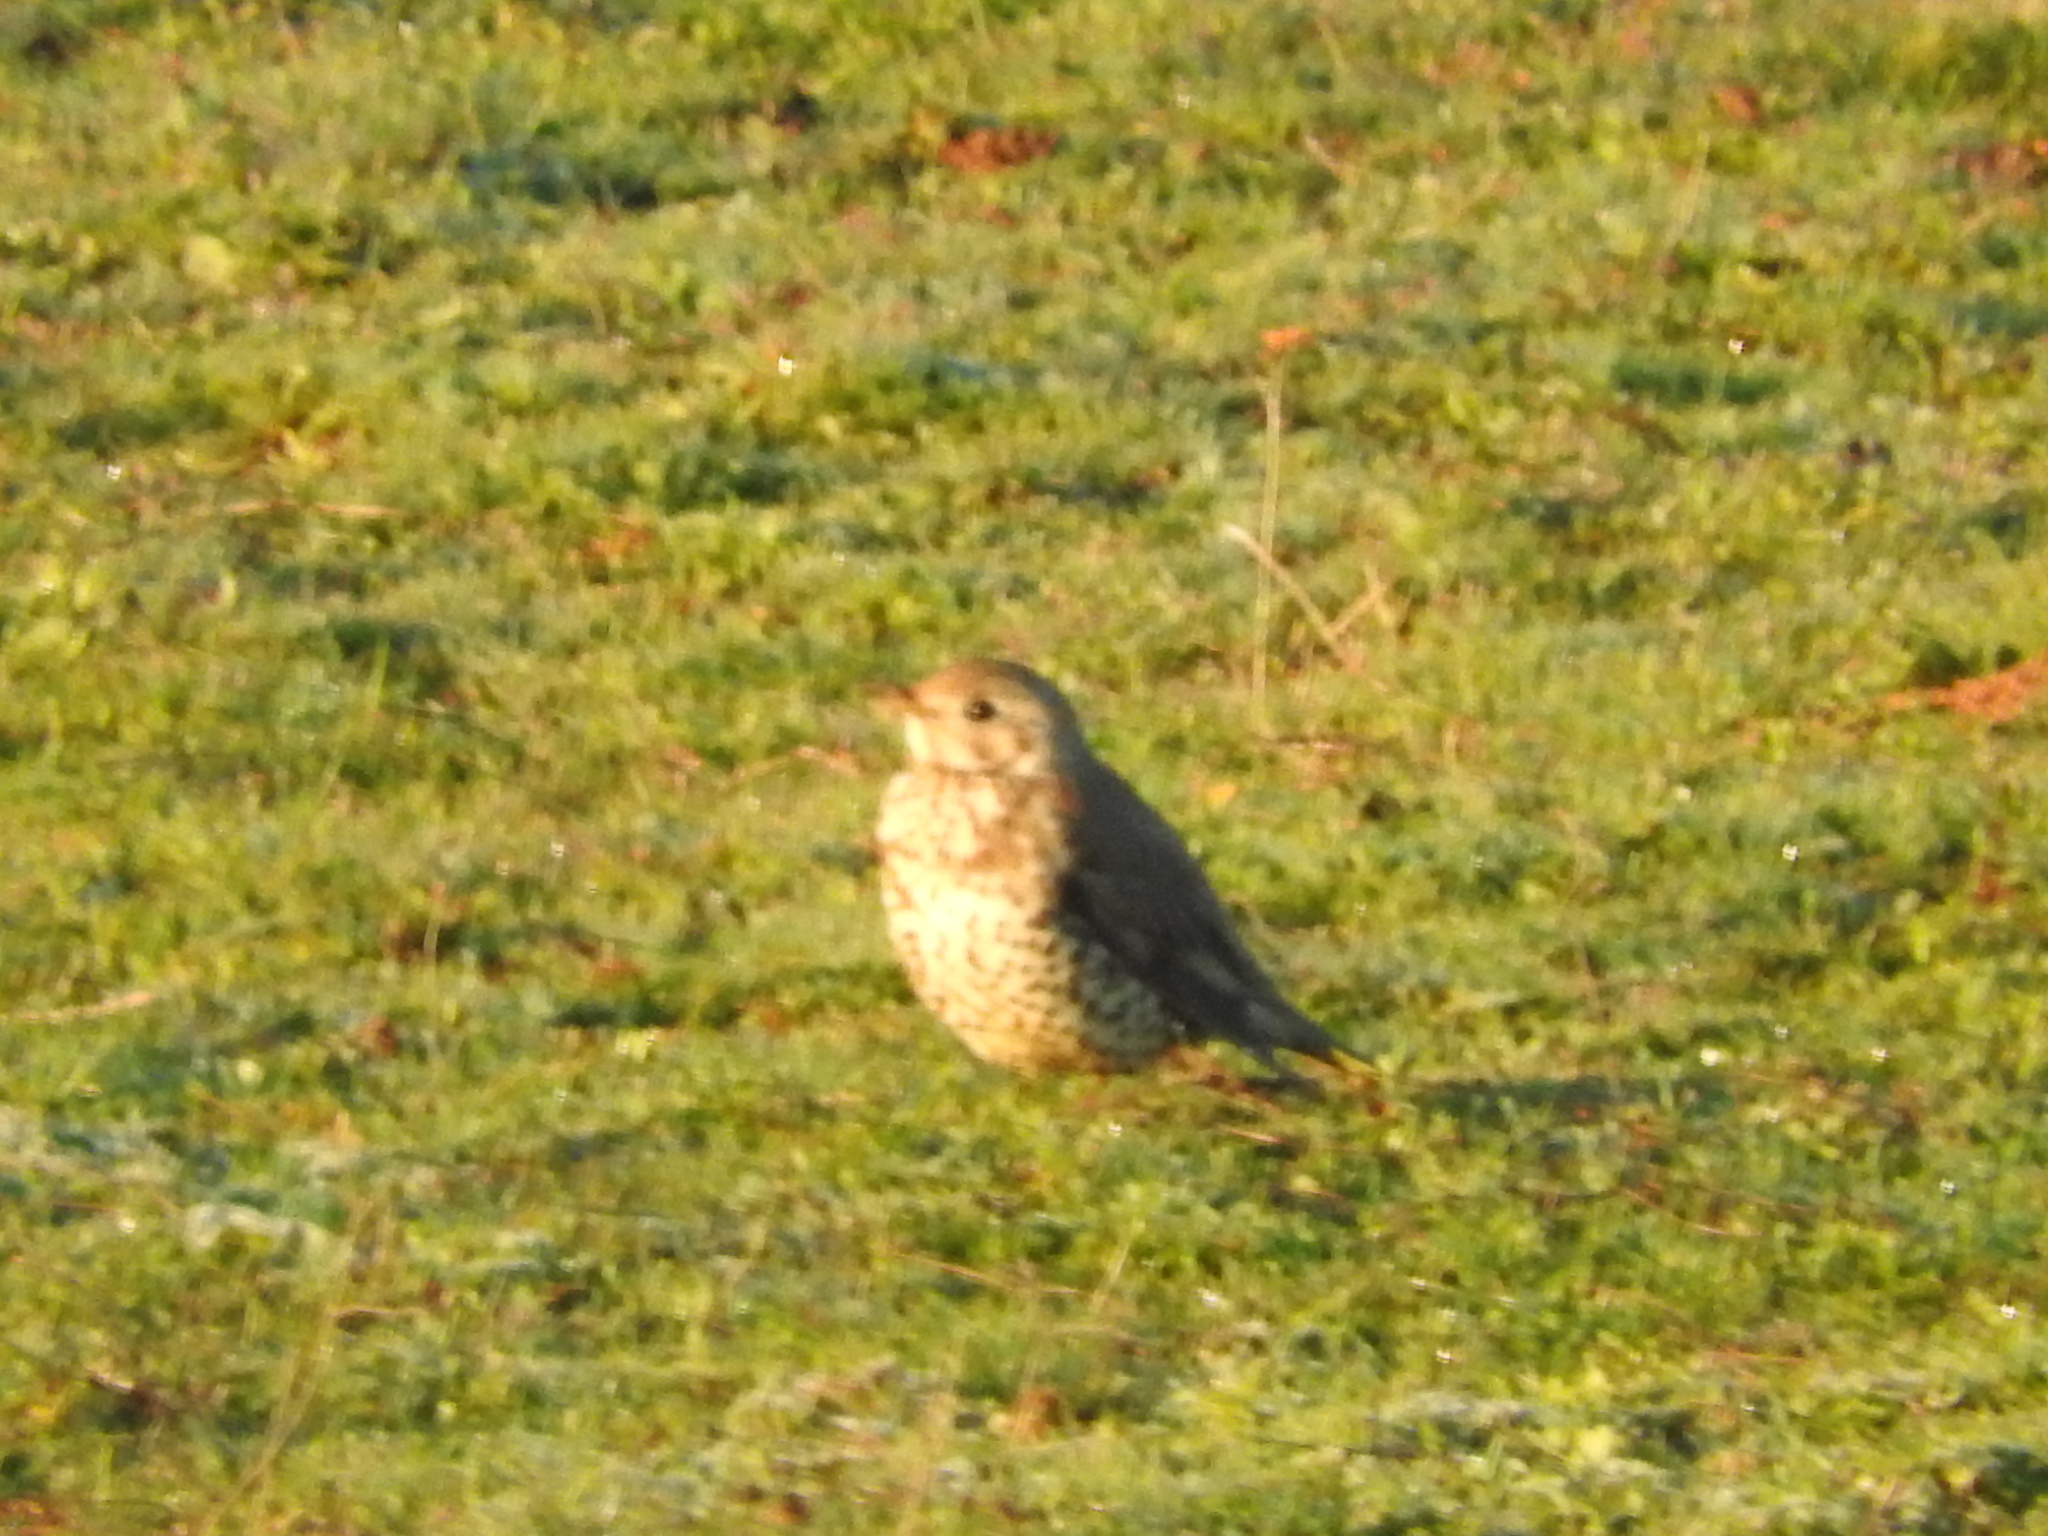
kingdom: Animalia
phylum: Chordata
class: Aves
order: Passeriformes
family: Turdidae
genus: Turdus
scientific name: Turdus philomelos
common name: Song thrush
